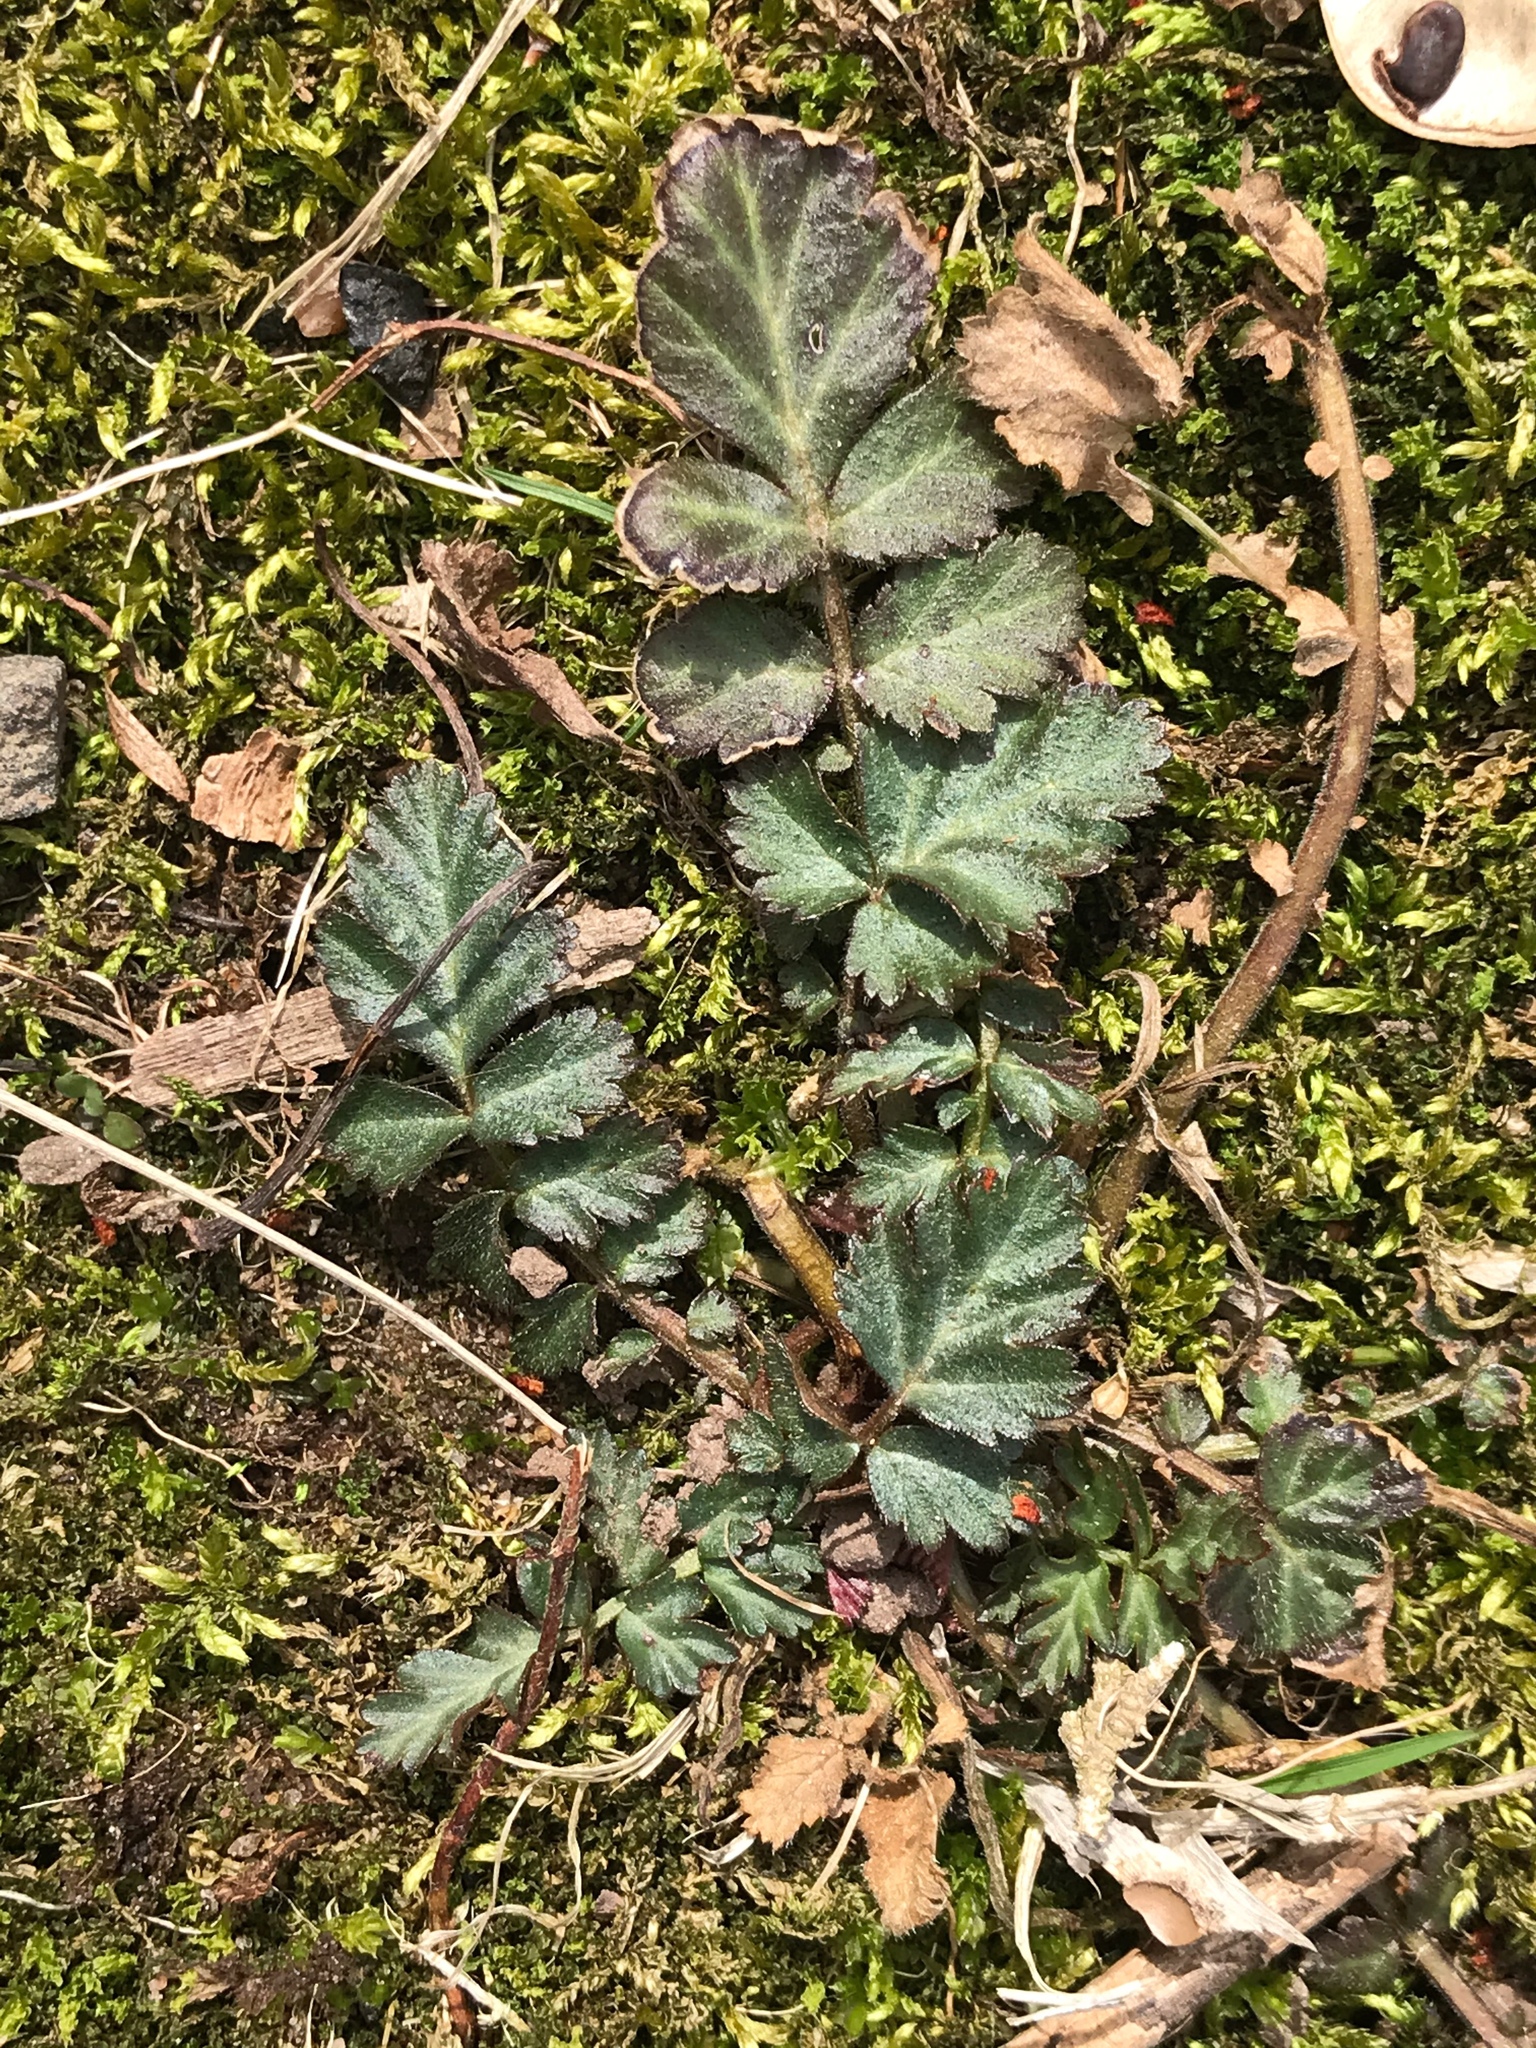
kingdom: Plantae
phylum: Tracheophyta
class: Magnoliopsida
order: Rosales
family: Rosaceae
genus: Geum
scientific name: Geum canadense
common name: White avens
